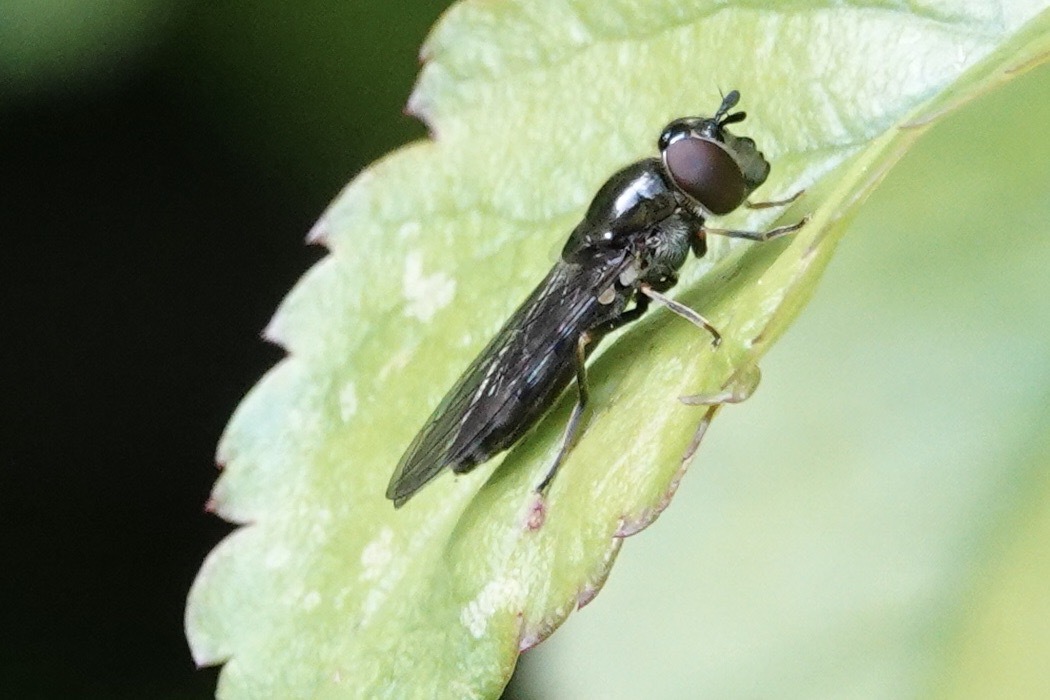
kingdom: Animalia
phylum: Arthropoda
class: Insecta
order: Diptera
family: Syrphidae
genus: Platycheirus
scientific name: Platycheirus albimanus
